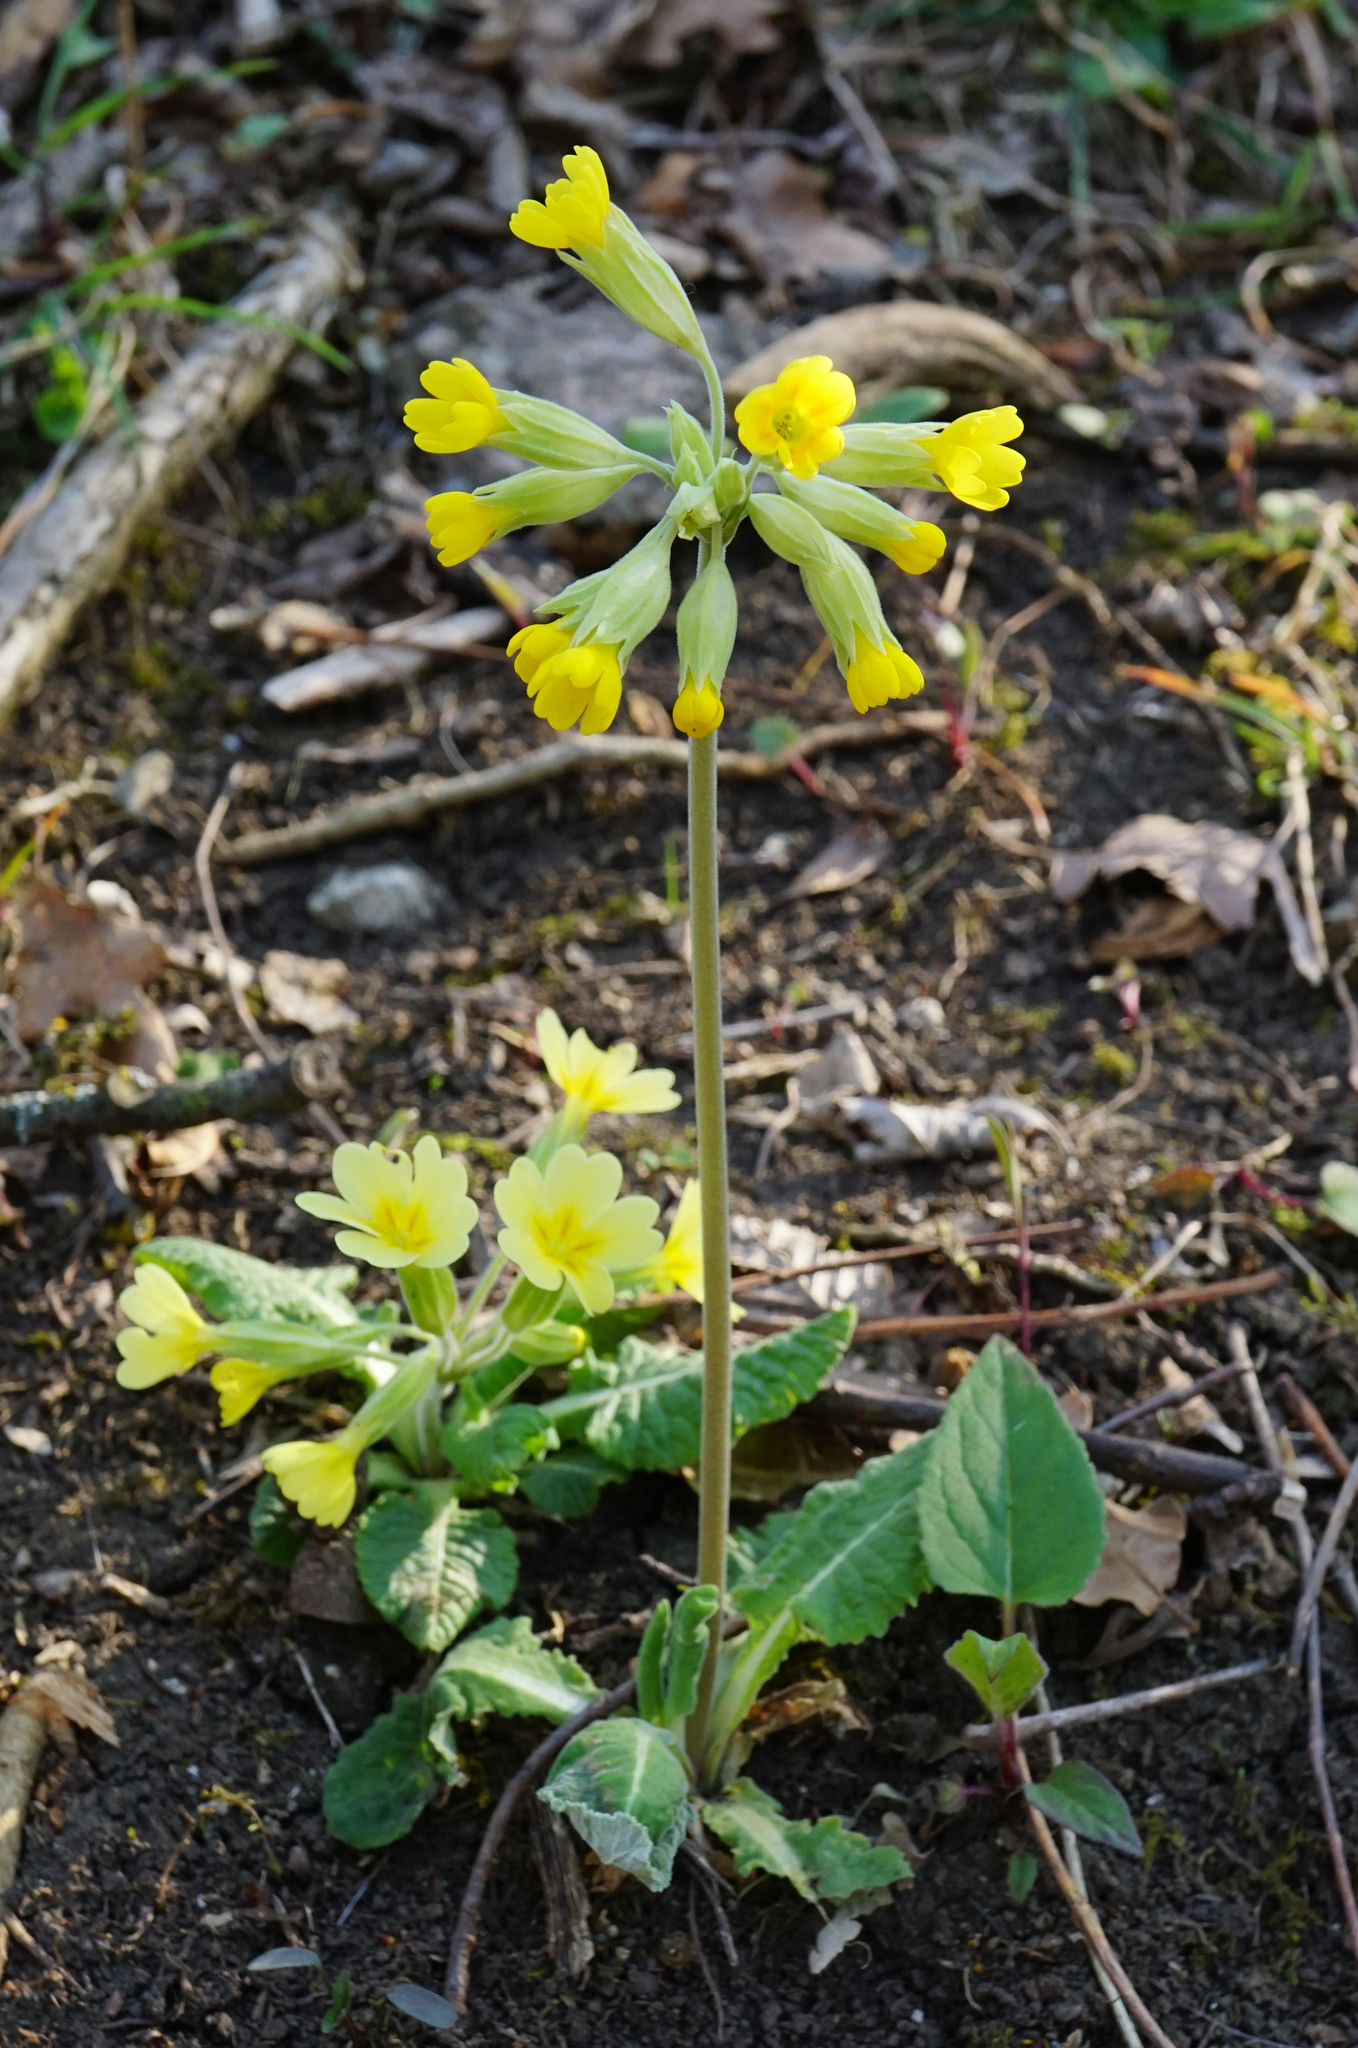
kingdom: Plantae
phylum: Tracheophyta
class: Magnoliopsida
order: Ericales
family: Primulaceae
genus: Primula
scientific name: Primula veris
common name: Cowslip
